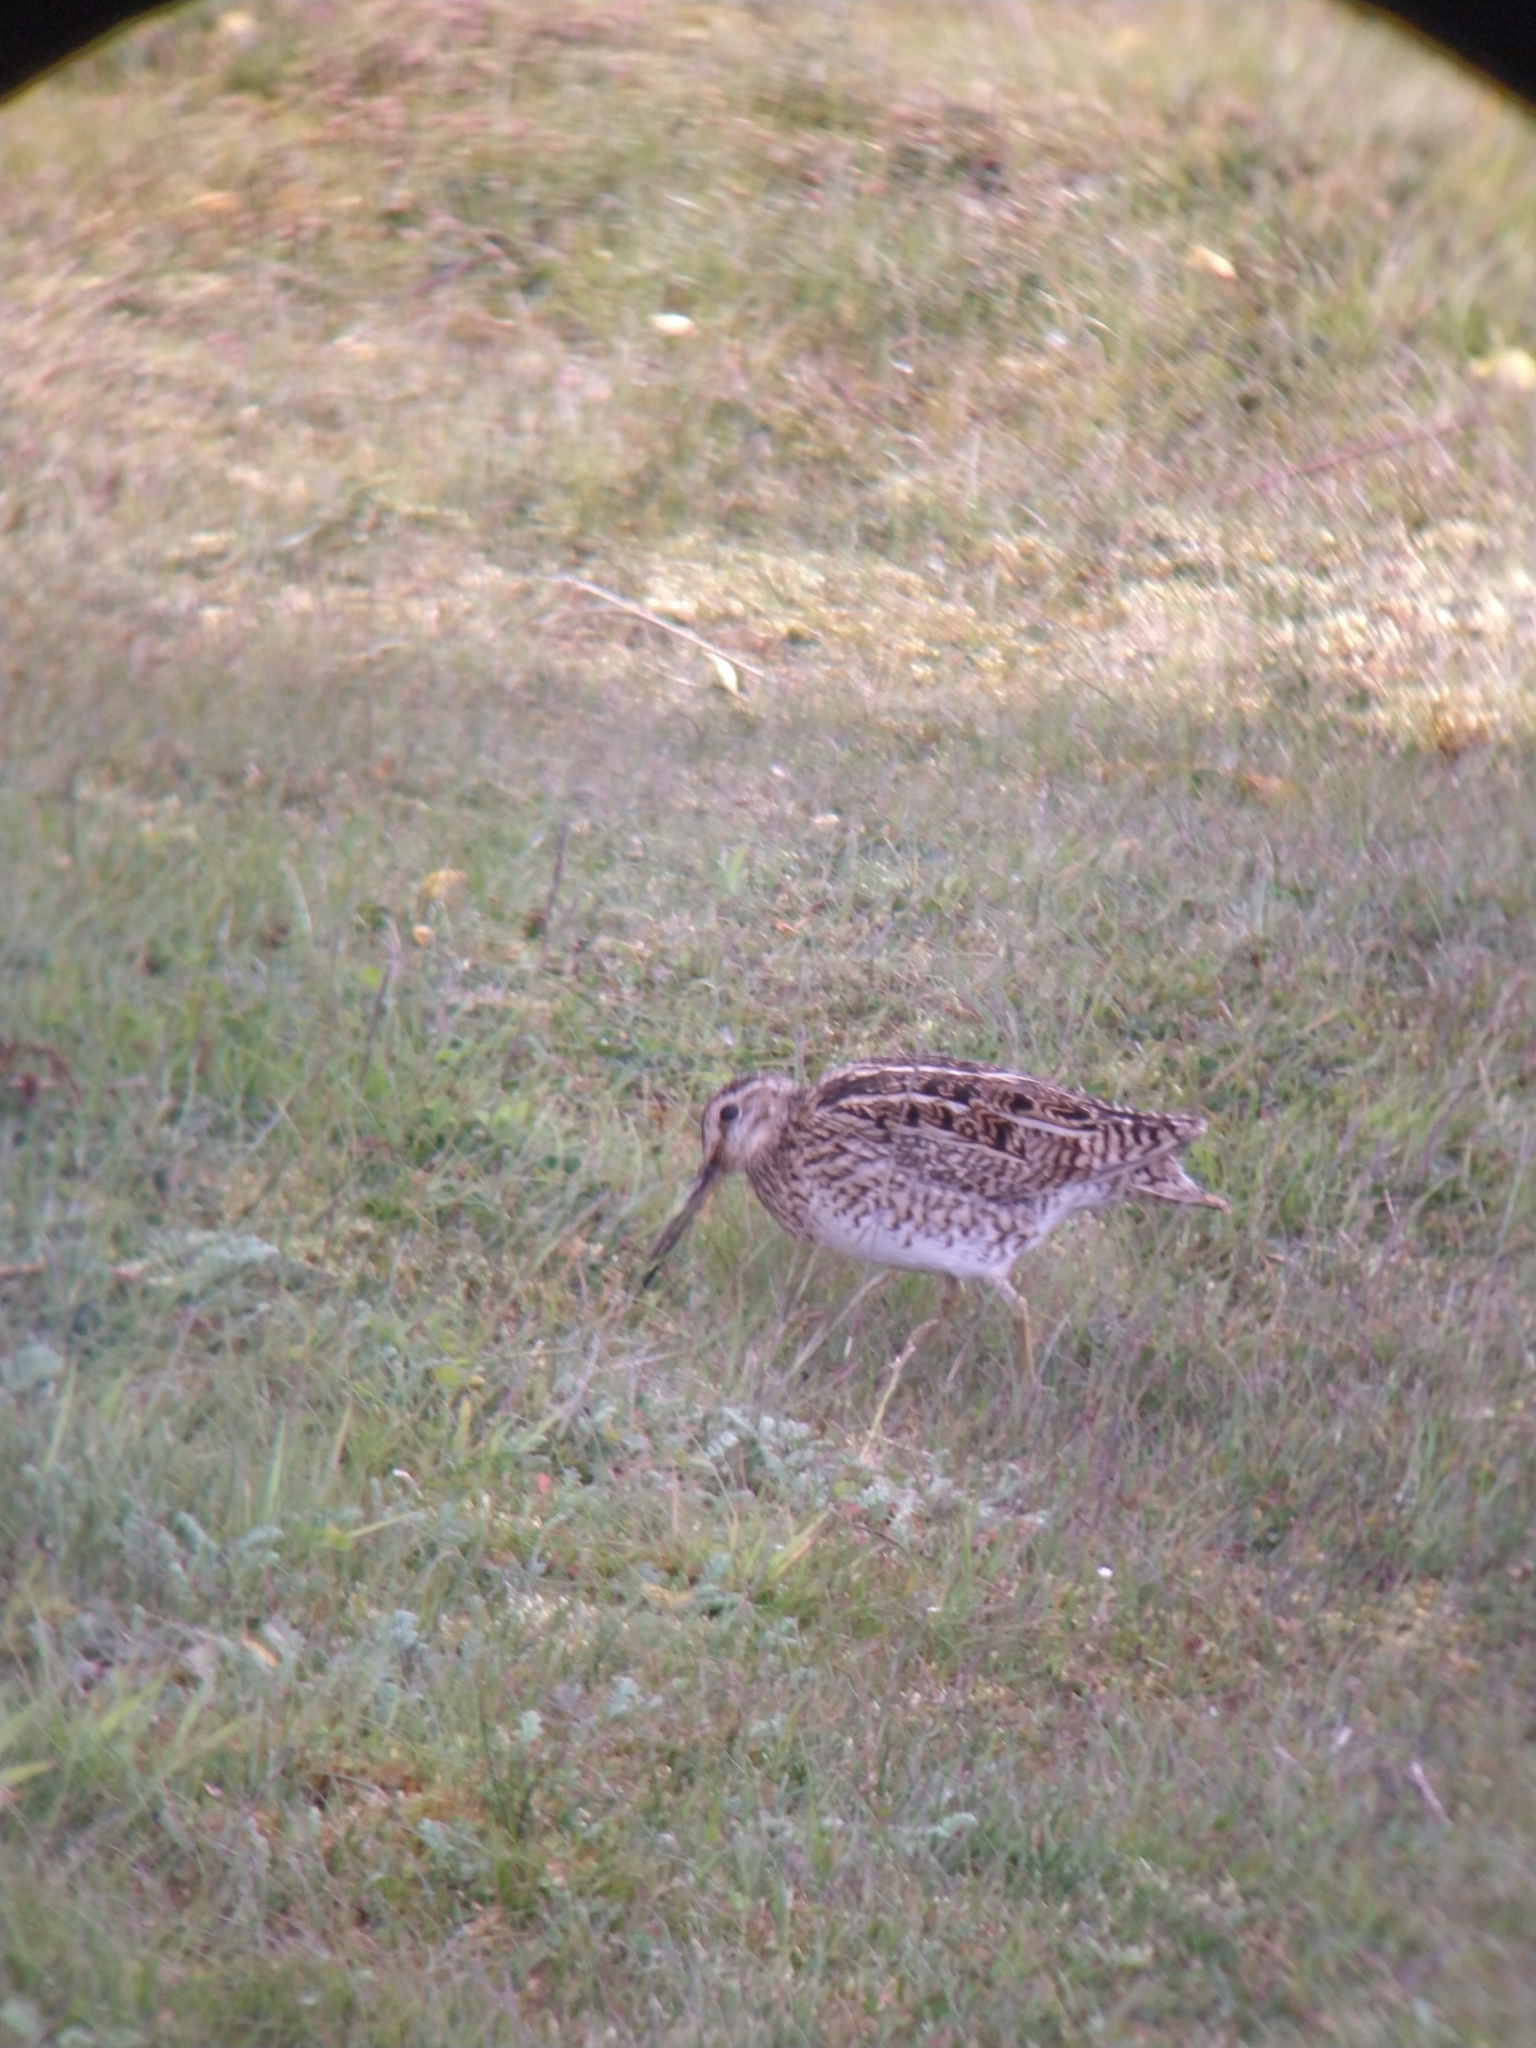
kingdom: Animalia
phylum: Chordata
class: Aves
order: Charadriiformes
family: Scolopacidae
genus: Gallinago
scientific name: Gallinago magellanica
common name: Magellanic snipe
